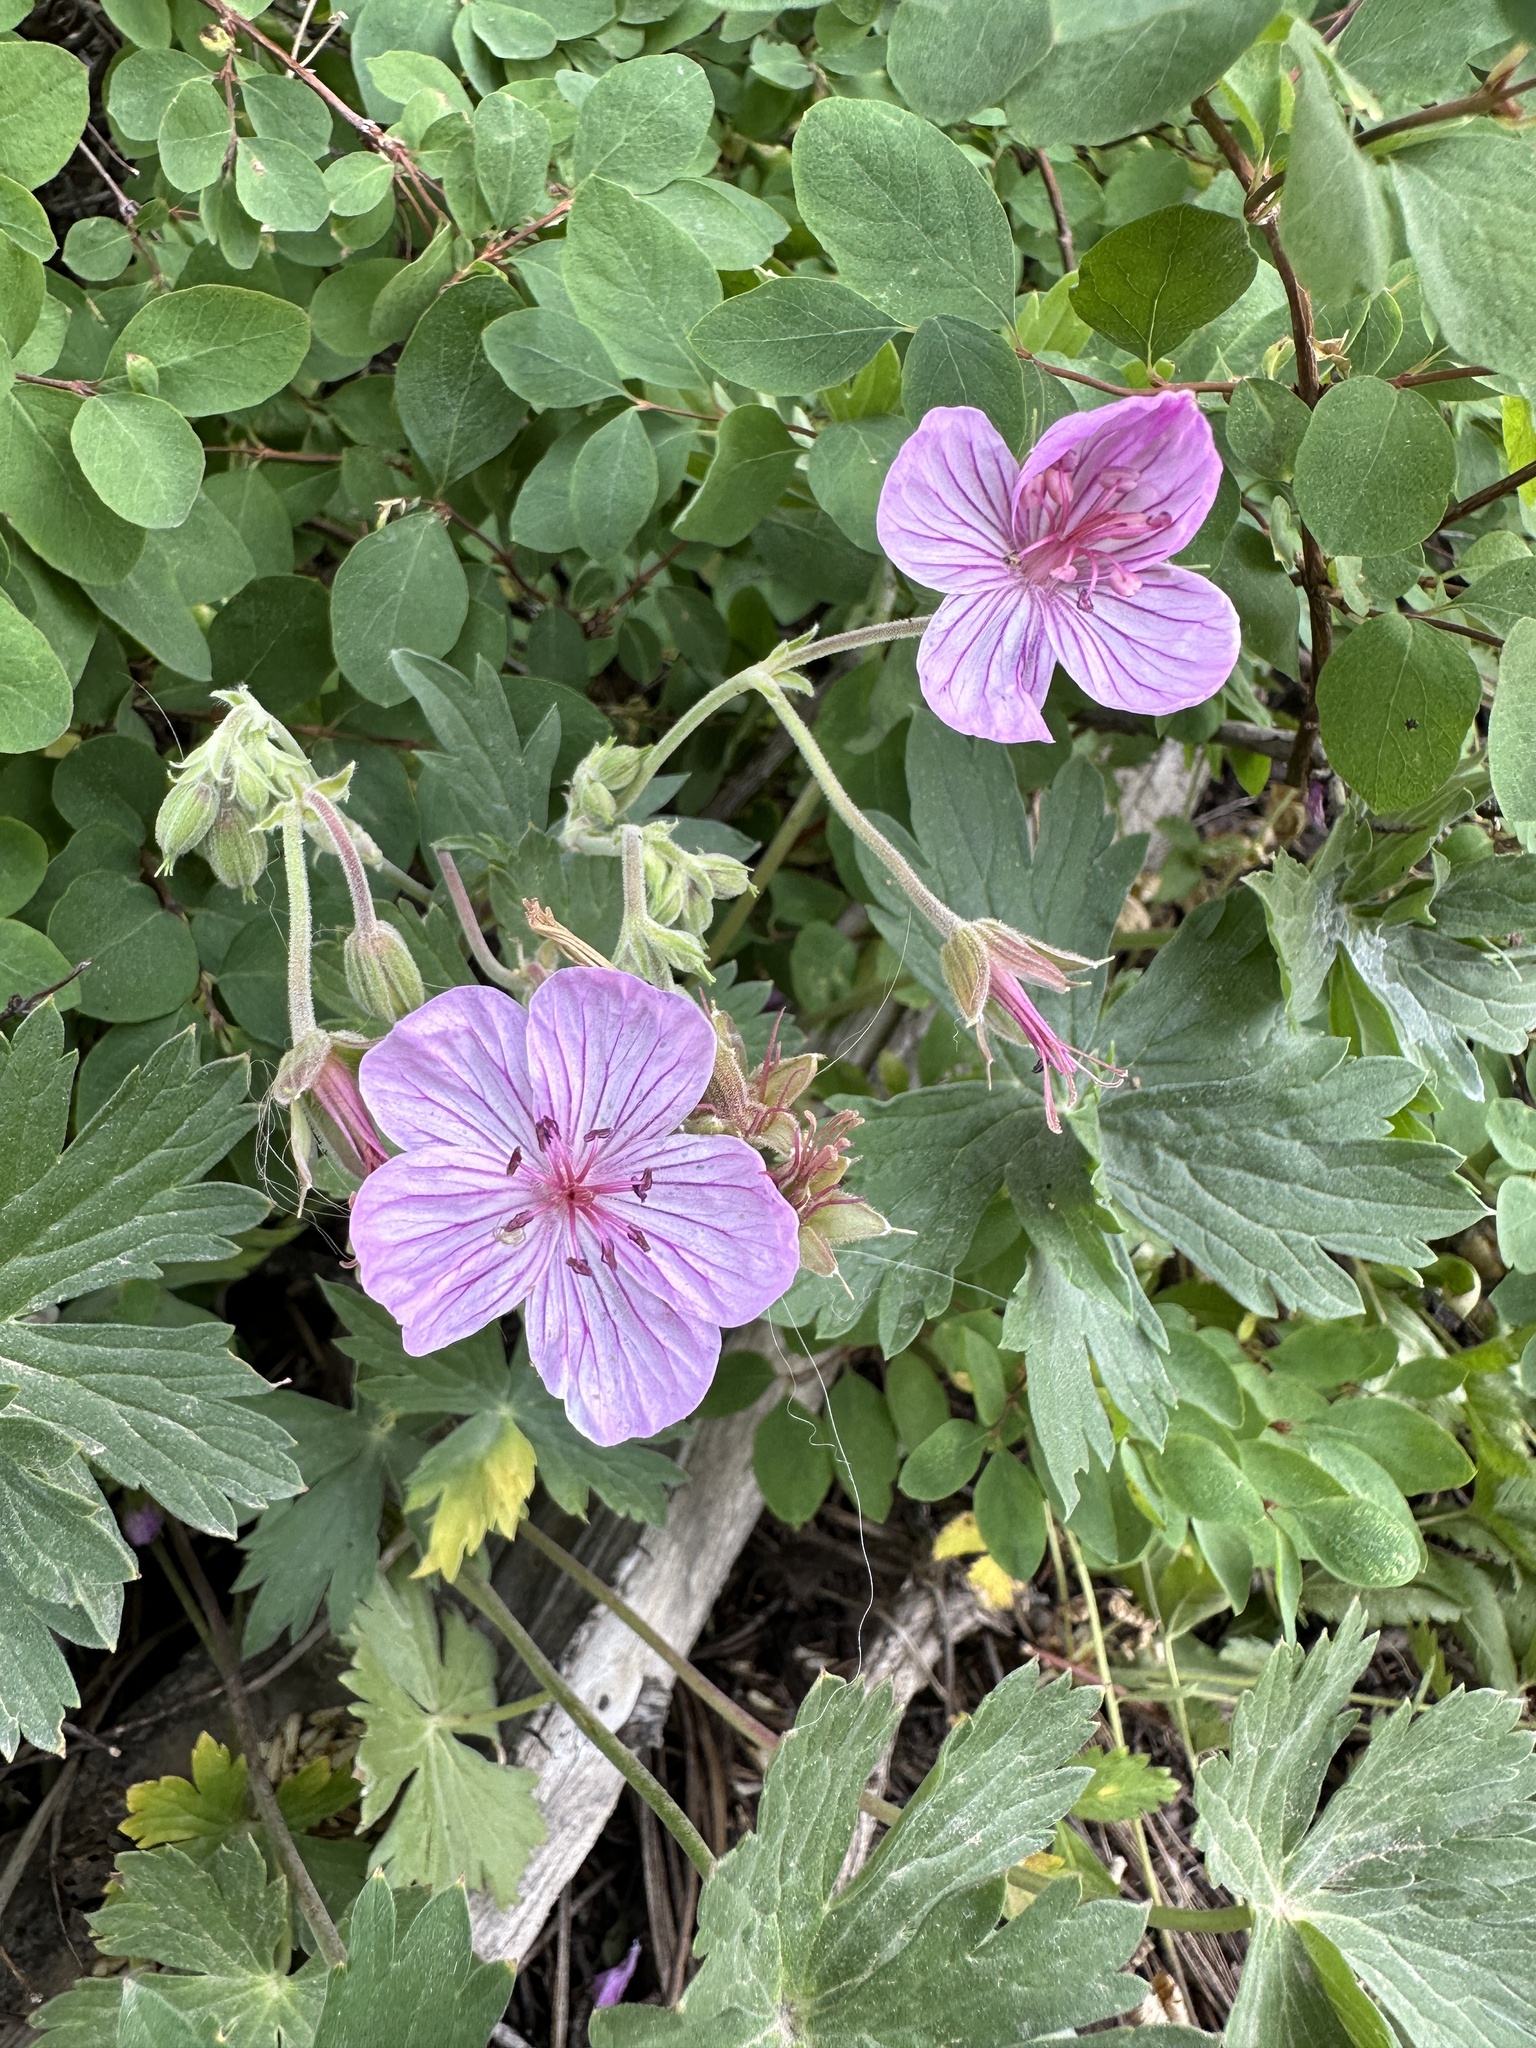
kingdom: Plantae
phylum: Tracheophyta
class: Magnoliopsida
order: Geraniales
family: Geraniaceae
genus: Geranium
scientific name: Geranium viscosissimum
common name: Purple geranium
